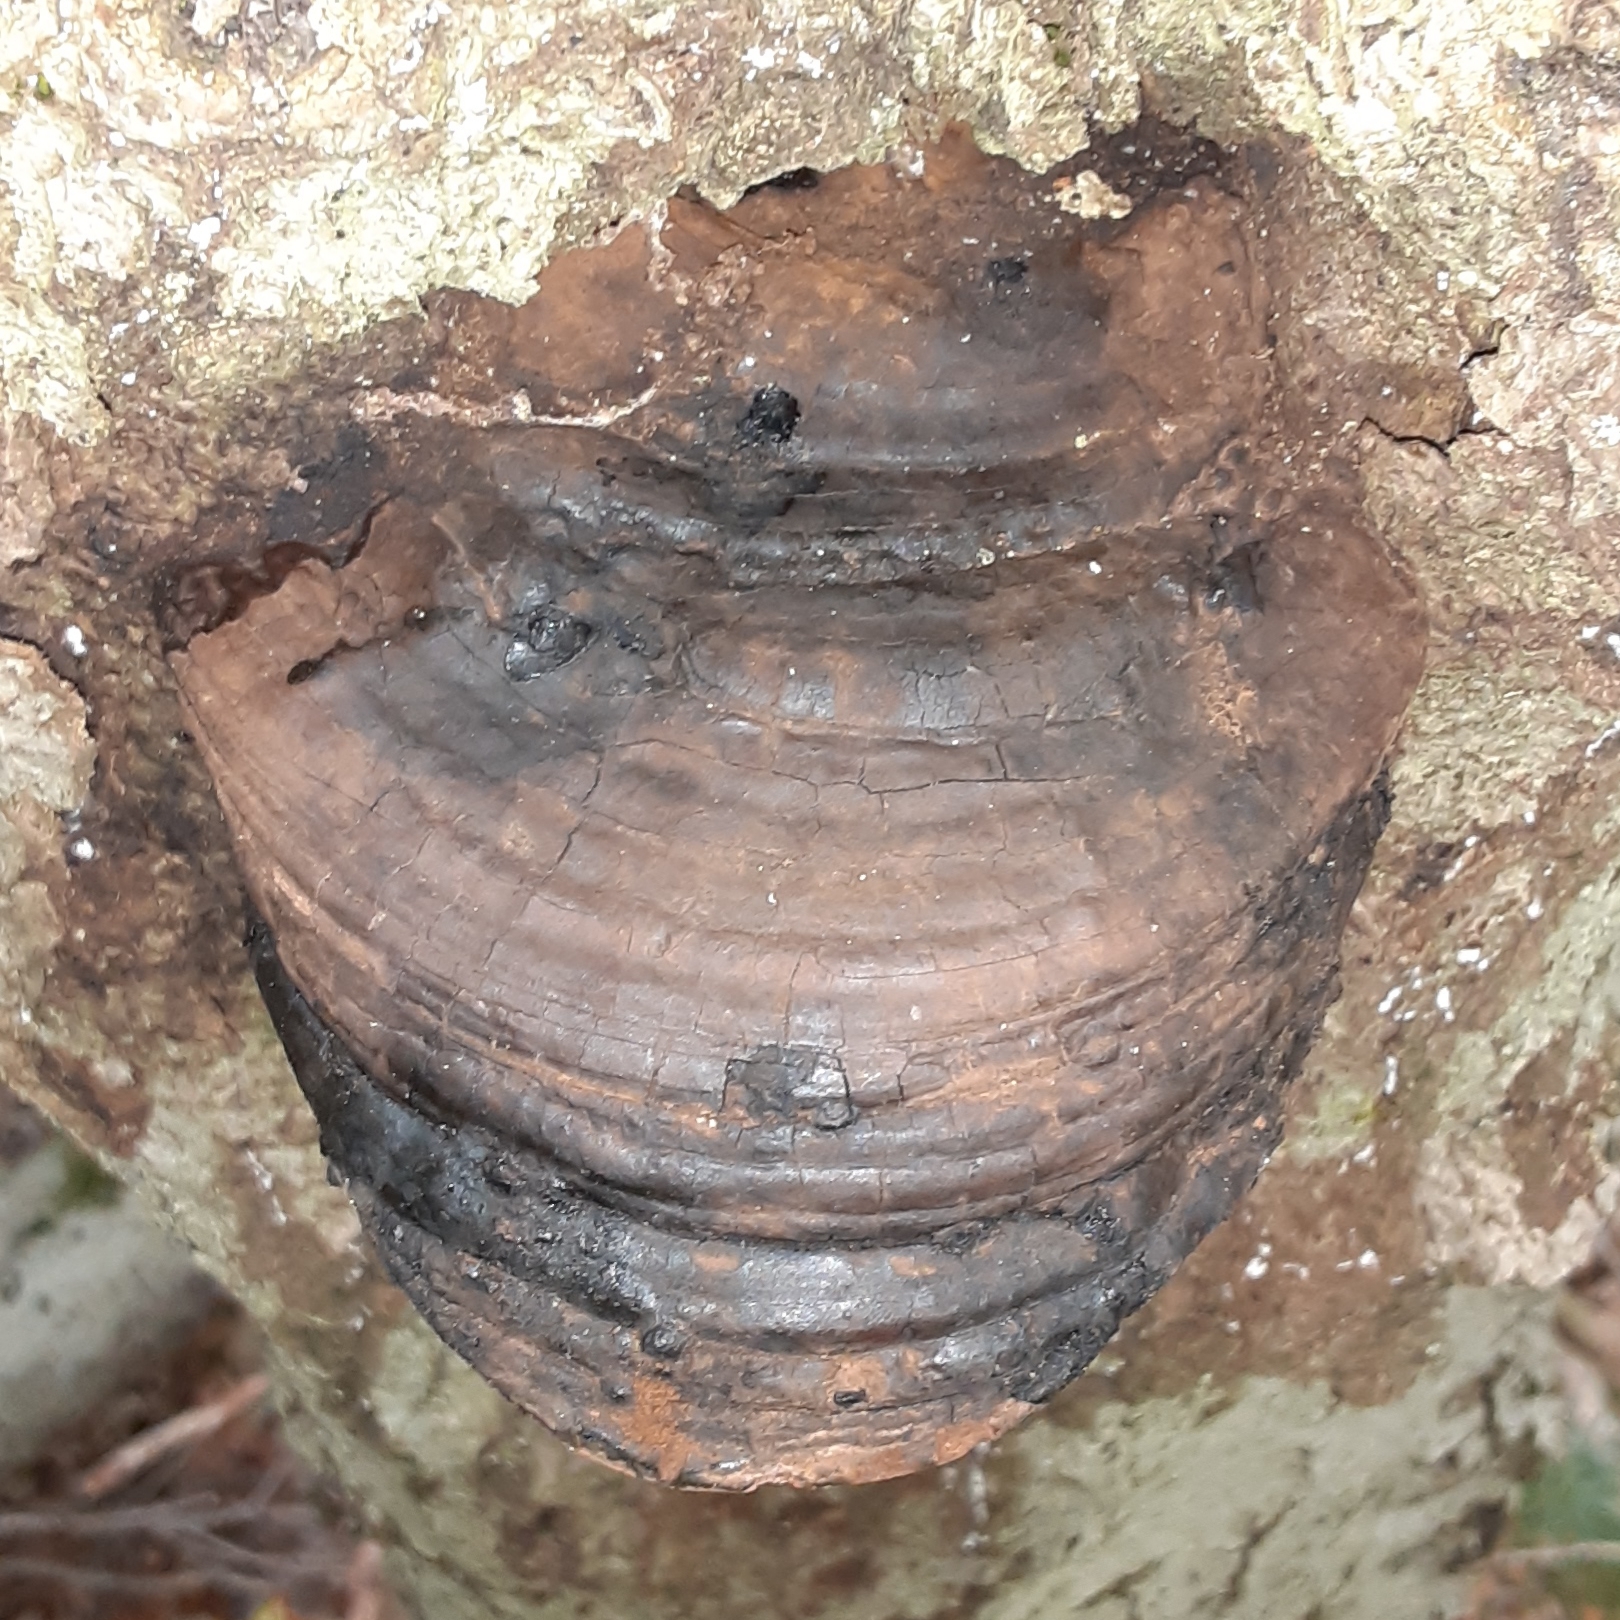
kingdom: Fungi
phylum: Basidiomycota
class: Agaricomycetes
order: Polyporales
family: Polyporaceae
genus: Fomes
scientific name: Fomes fomentarius
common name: Hoof fungus
